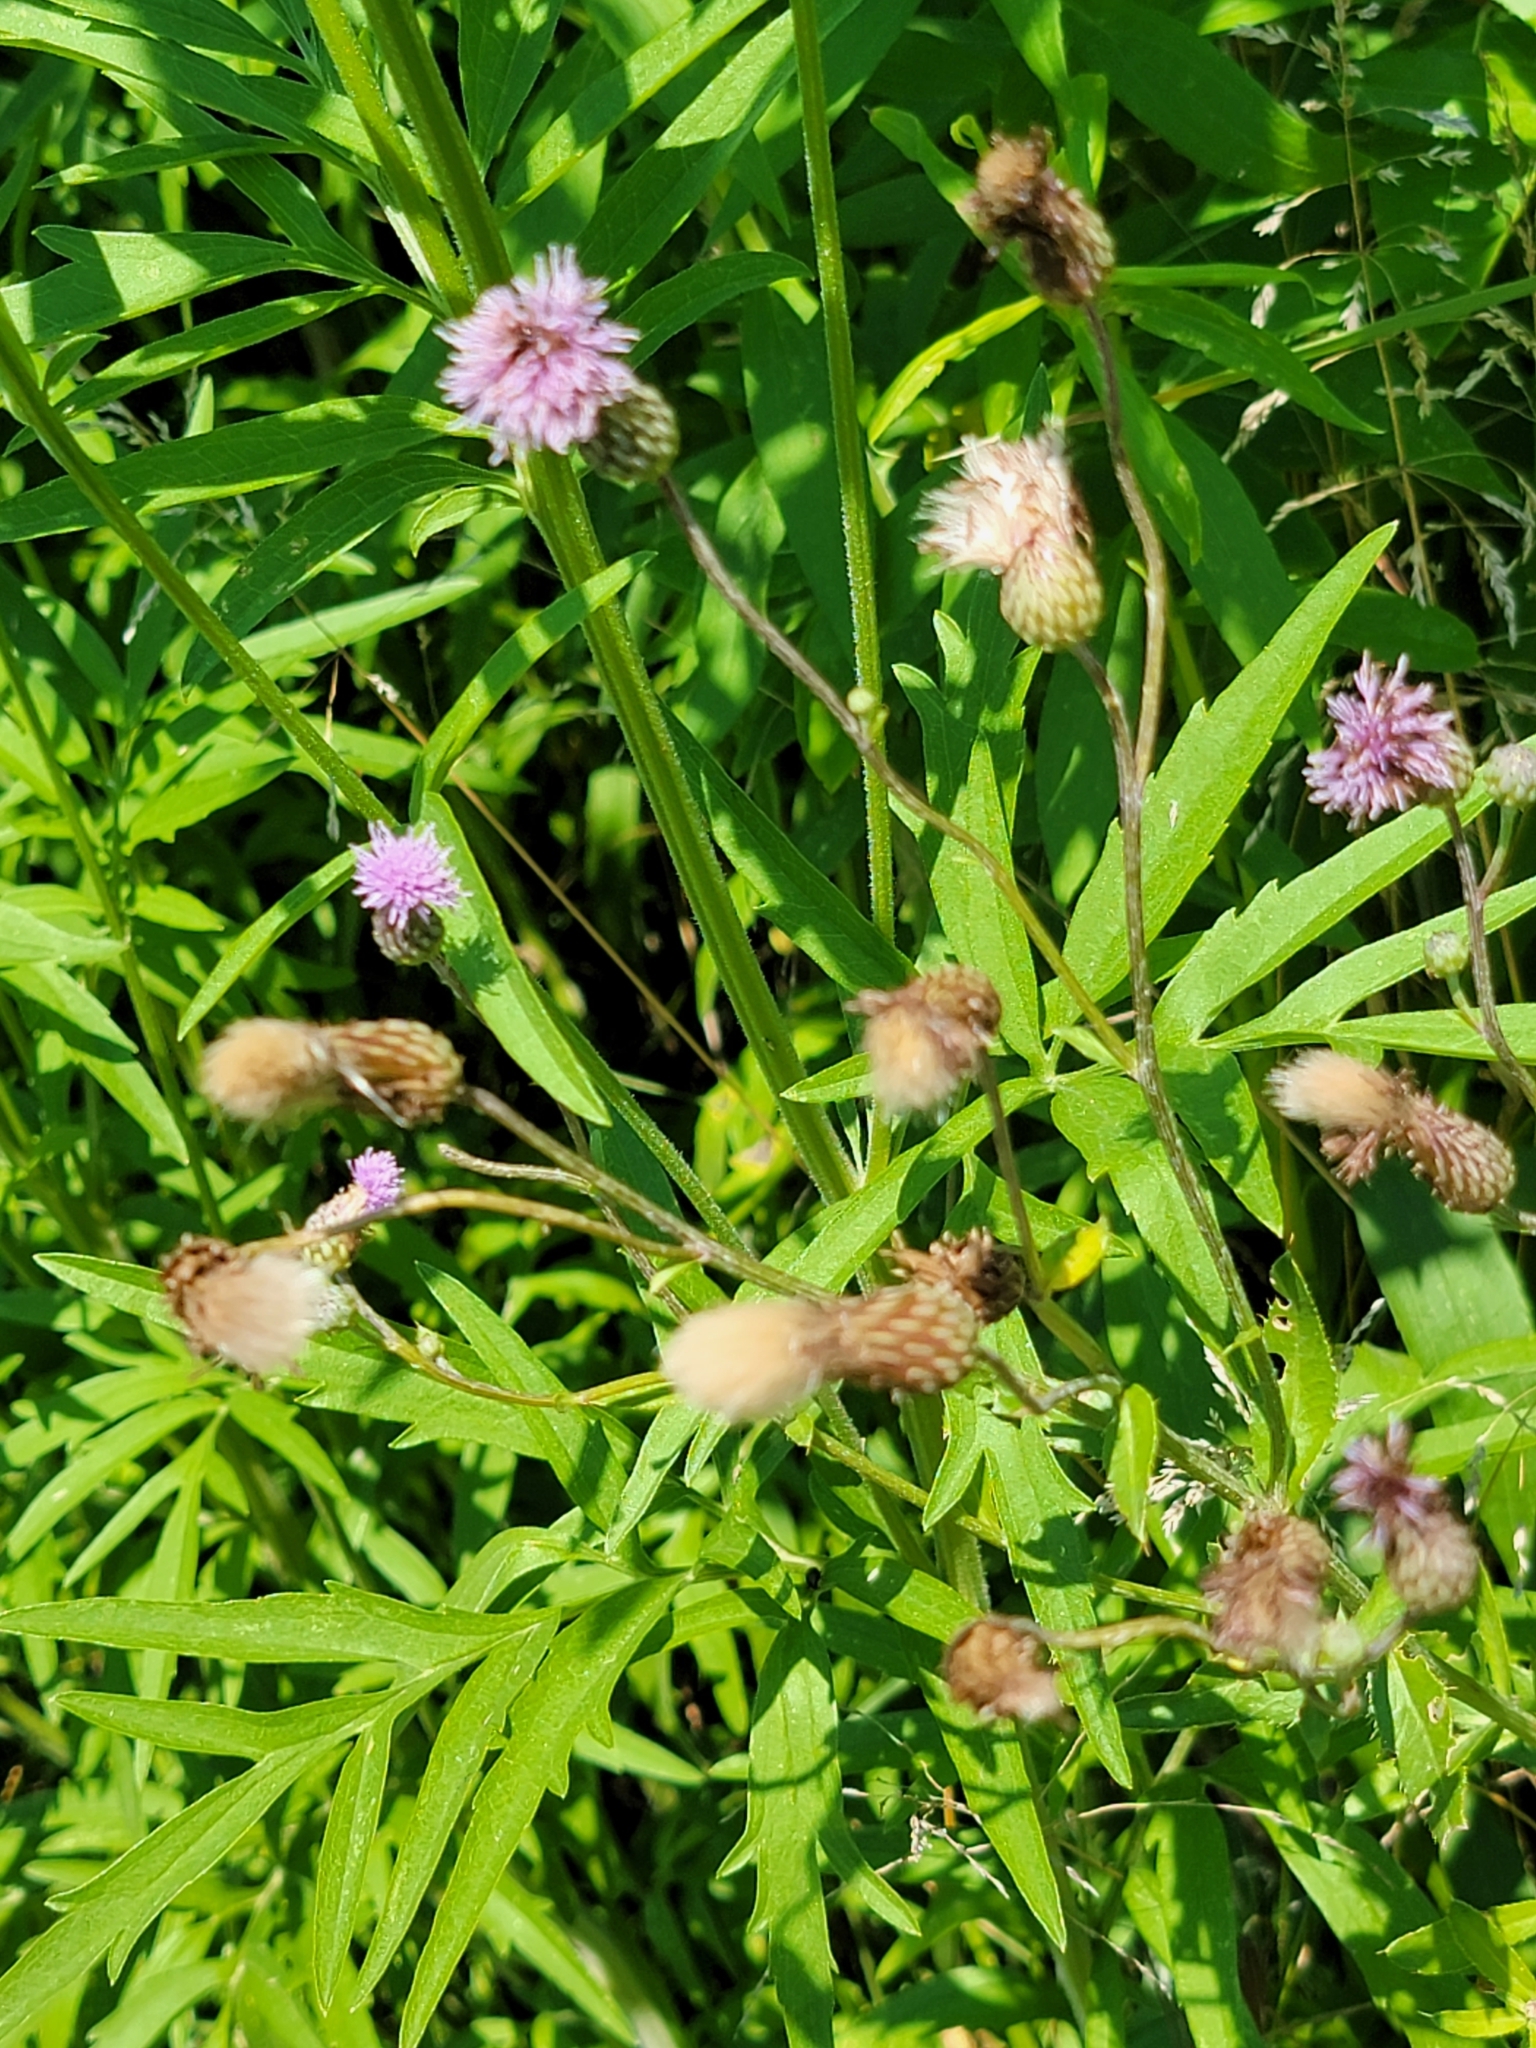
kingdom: Plantae
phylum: Tracheophyta
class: Magnoliopsida
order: Asterales
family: Asteraceae
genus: Cirsium
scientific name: Cirsium arvense
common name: Creeping thistle
